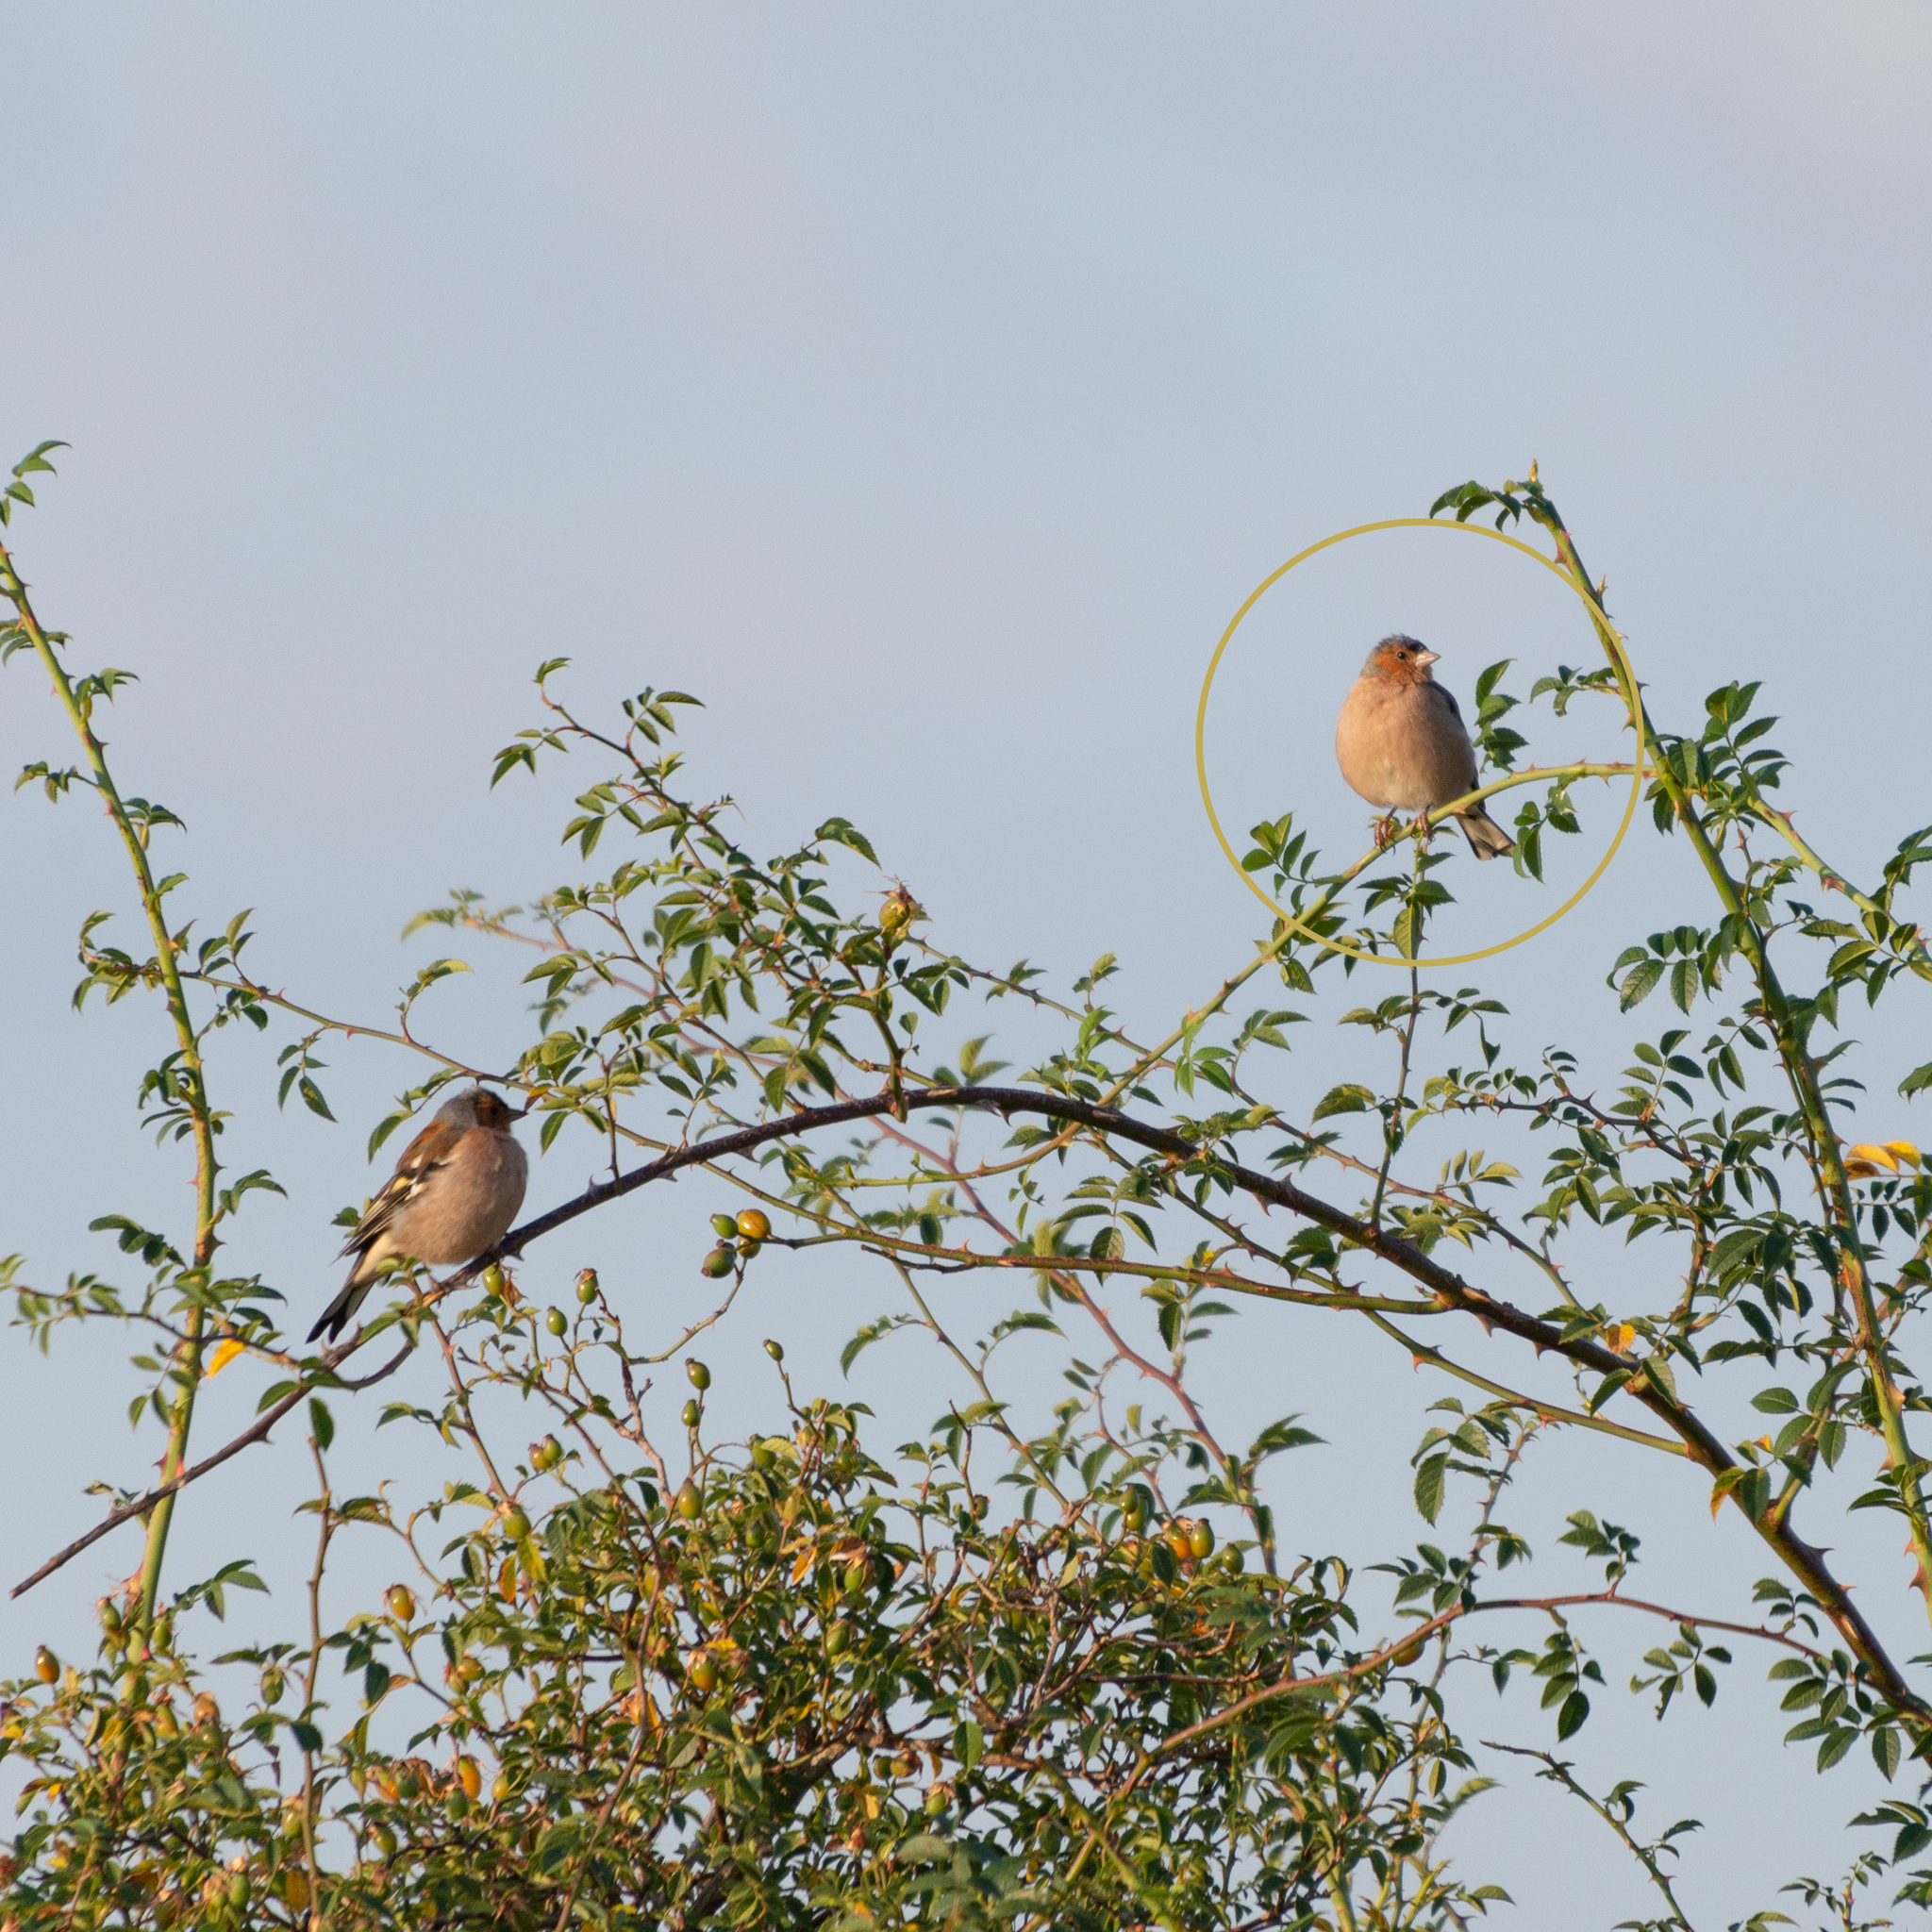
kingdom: Animalia
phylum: Chordata
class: Aves
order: Passeriformes
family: Fringillidae
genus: Fringilla
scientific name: Fringilla coelebs
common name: Common chaffinch
